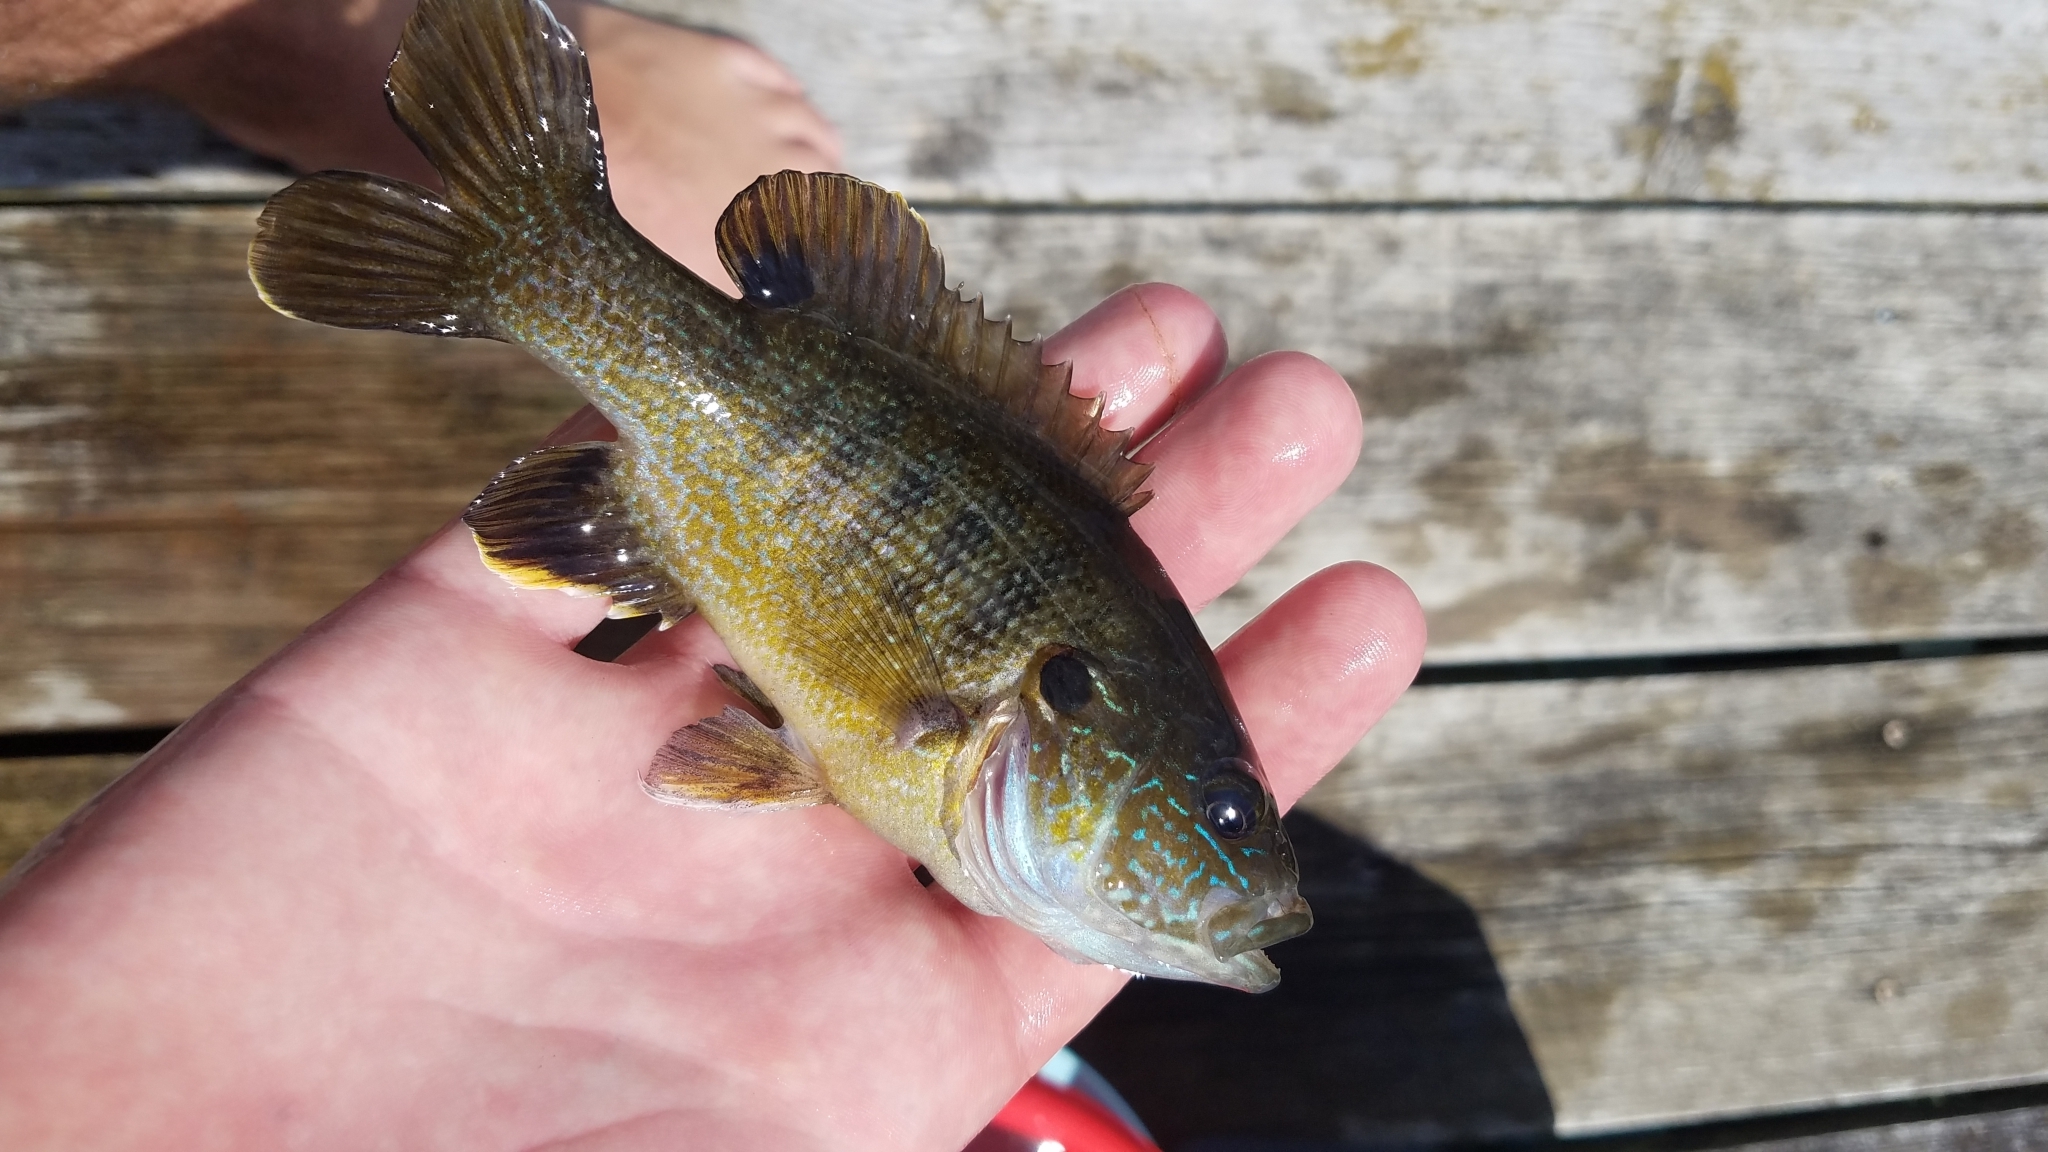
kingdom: Animalia
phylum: Chordata
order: Perciformes
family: Centrarchidae
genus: Lepomis
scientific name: Lepomis cyanellus
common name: Green sunfish
